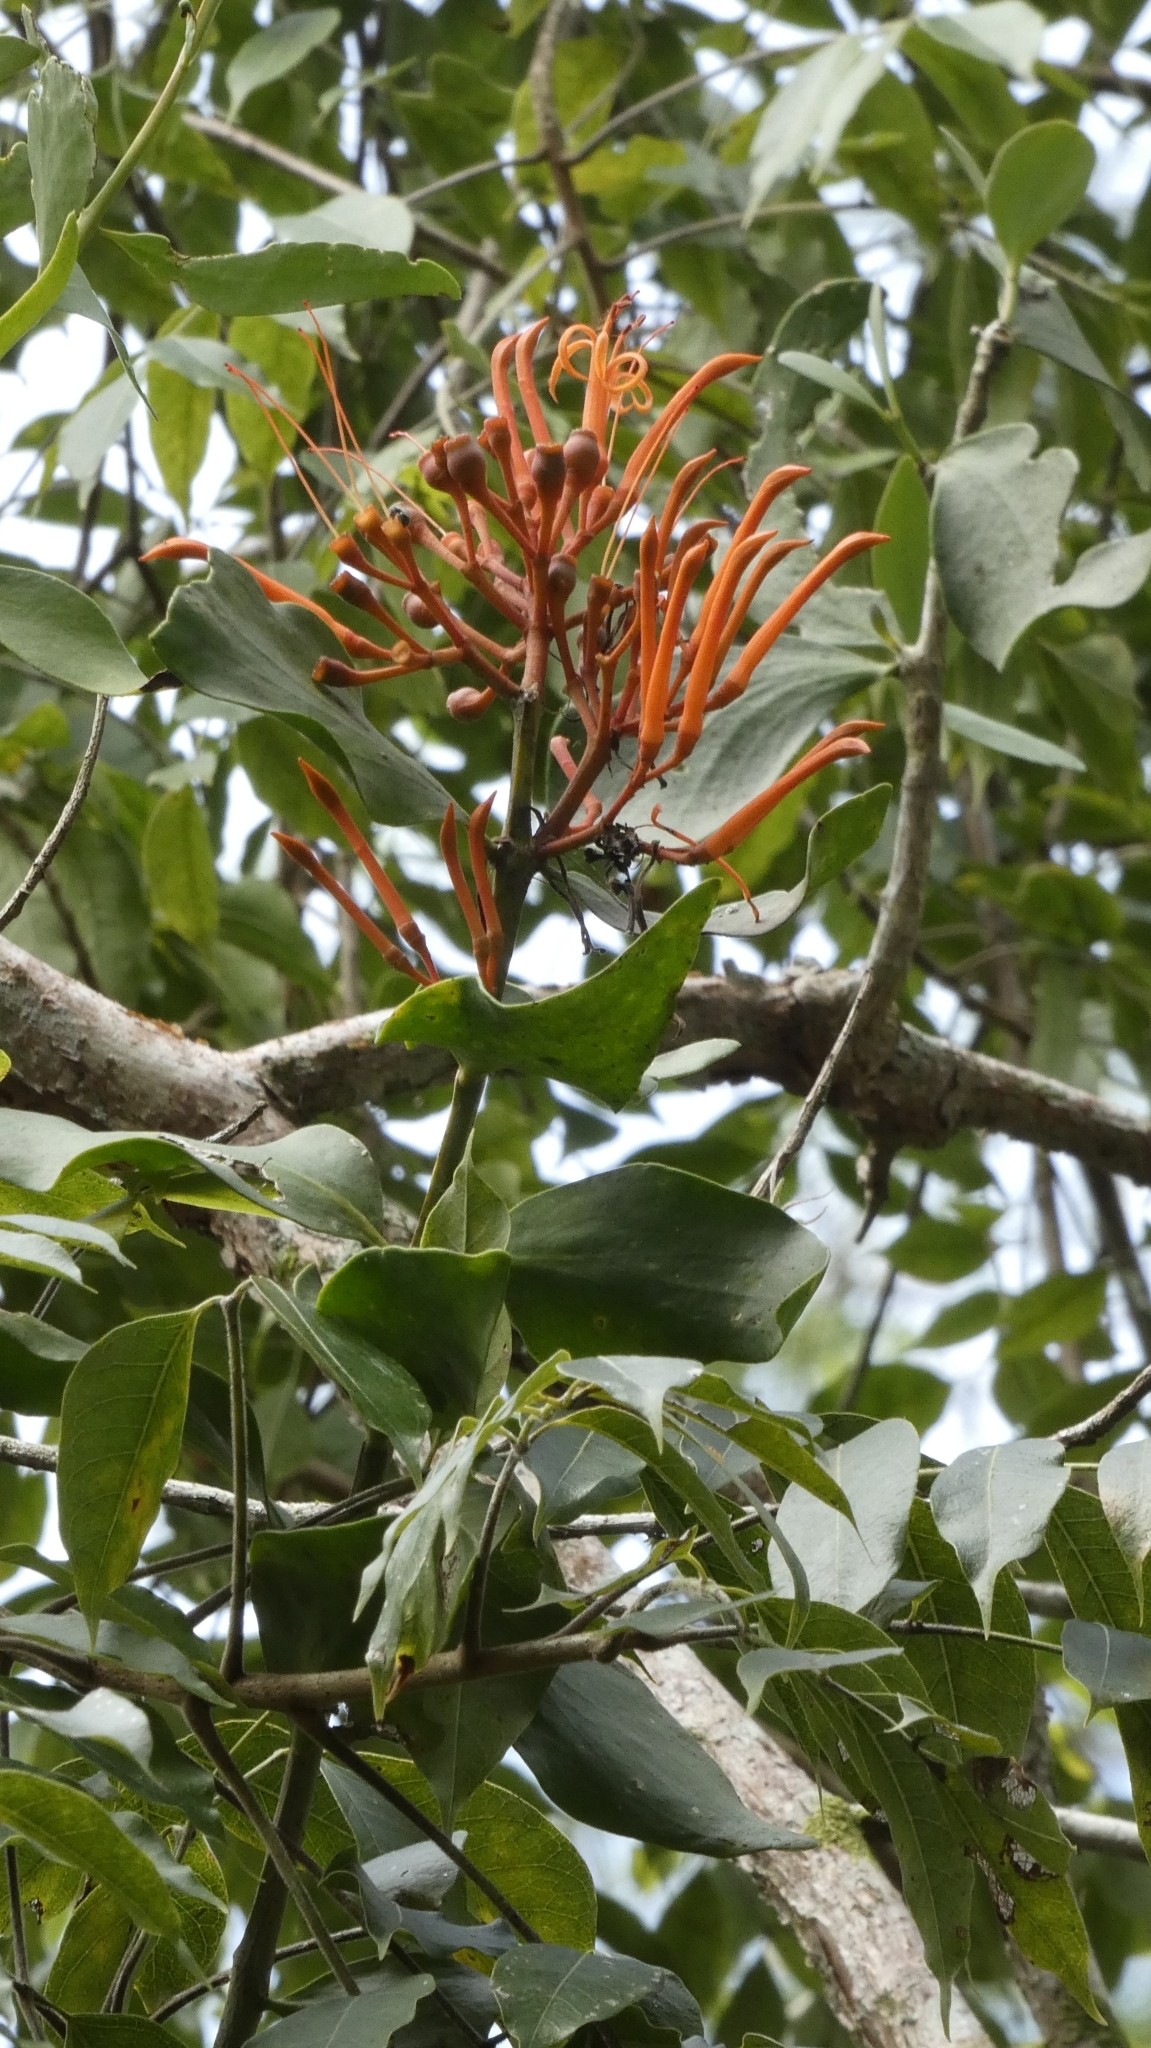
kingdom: Plantae
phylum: Tracheophyta
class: Magnoliopsida
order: Santalales
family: Loranthaceae
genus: Psittacanthus
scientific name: Psittacanthus calyculatus
